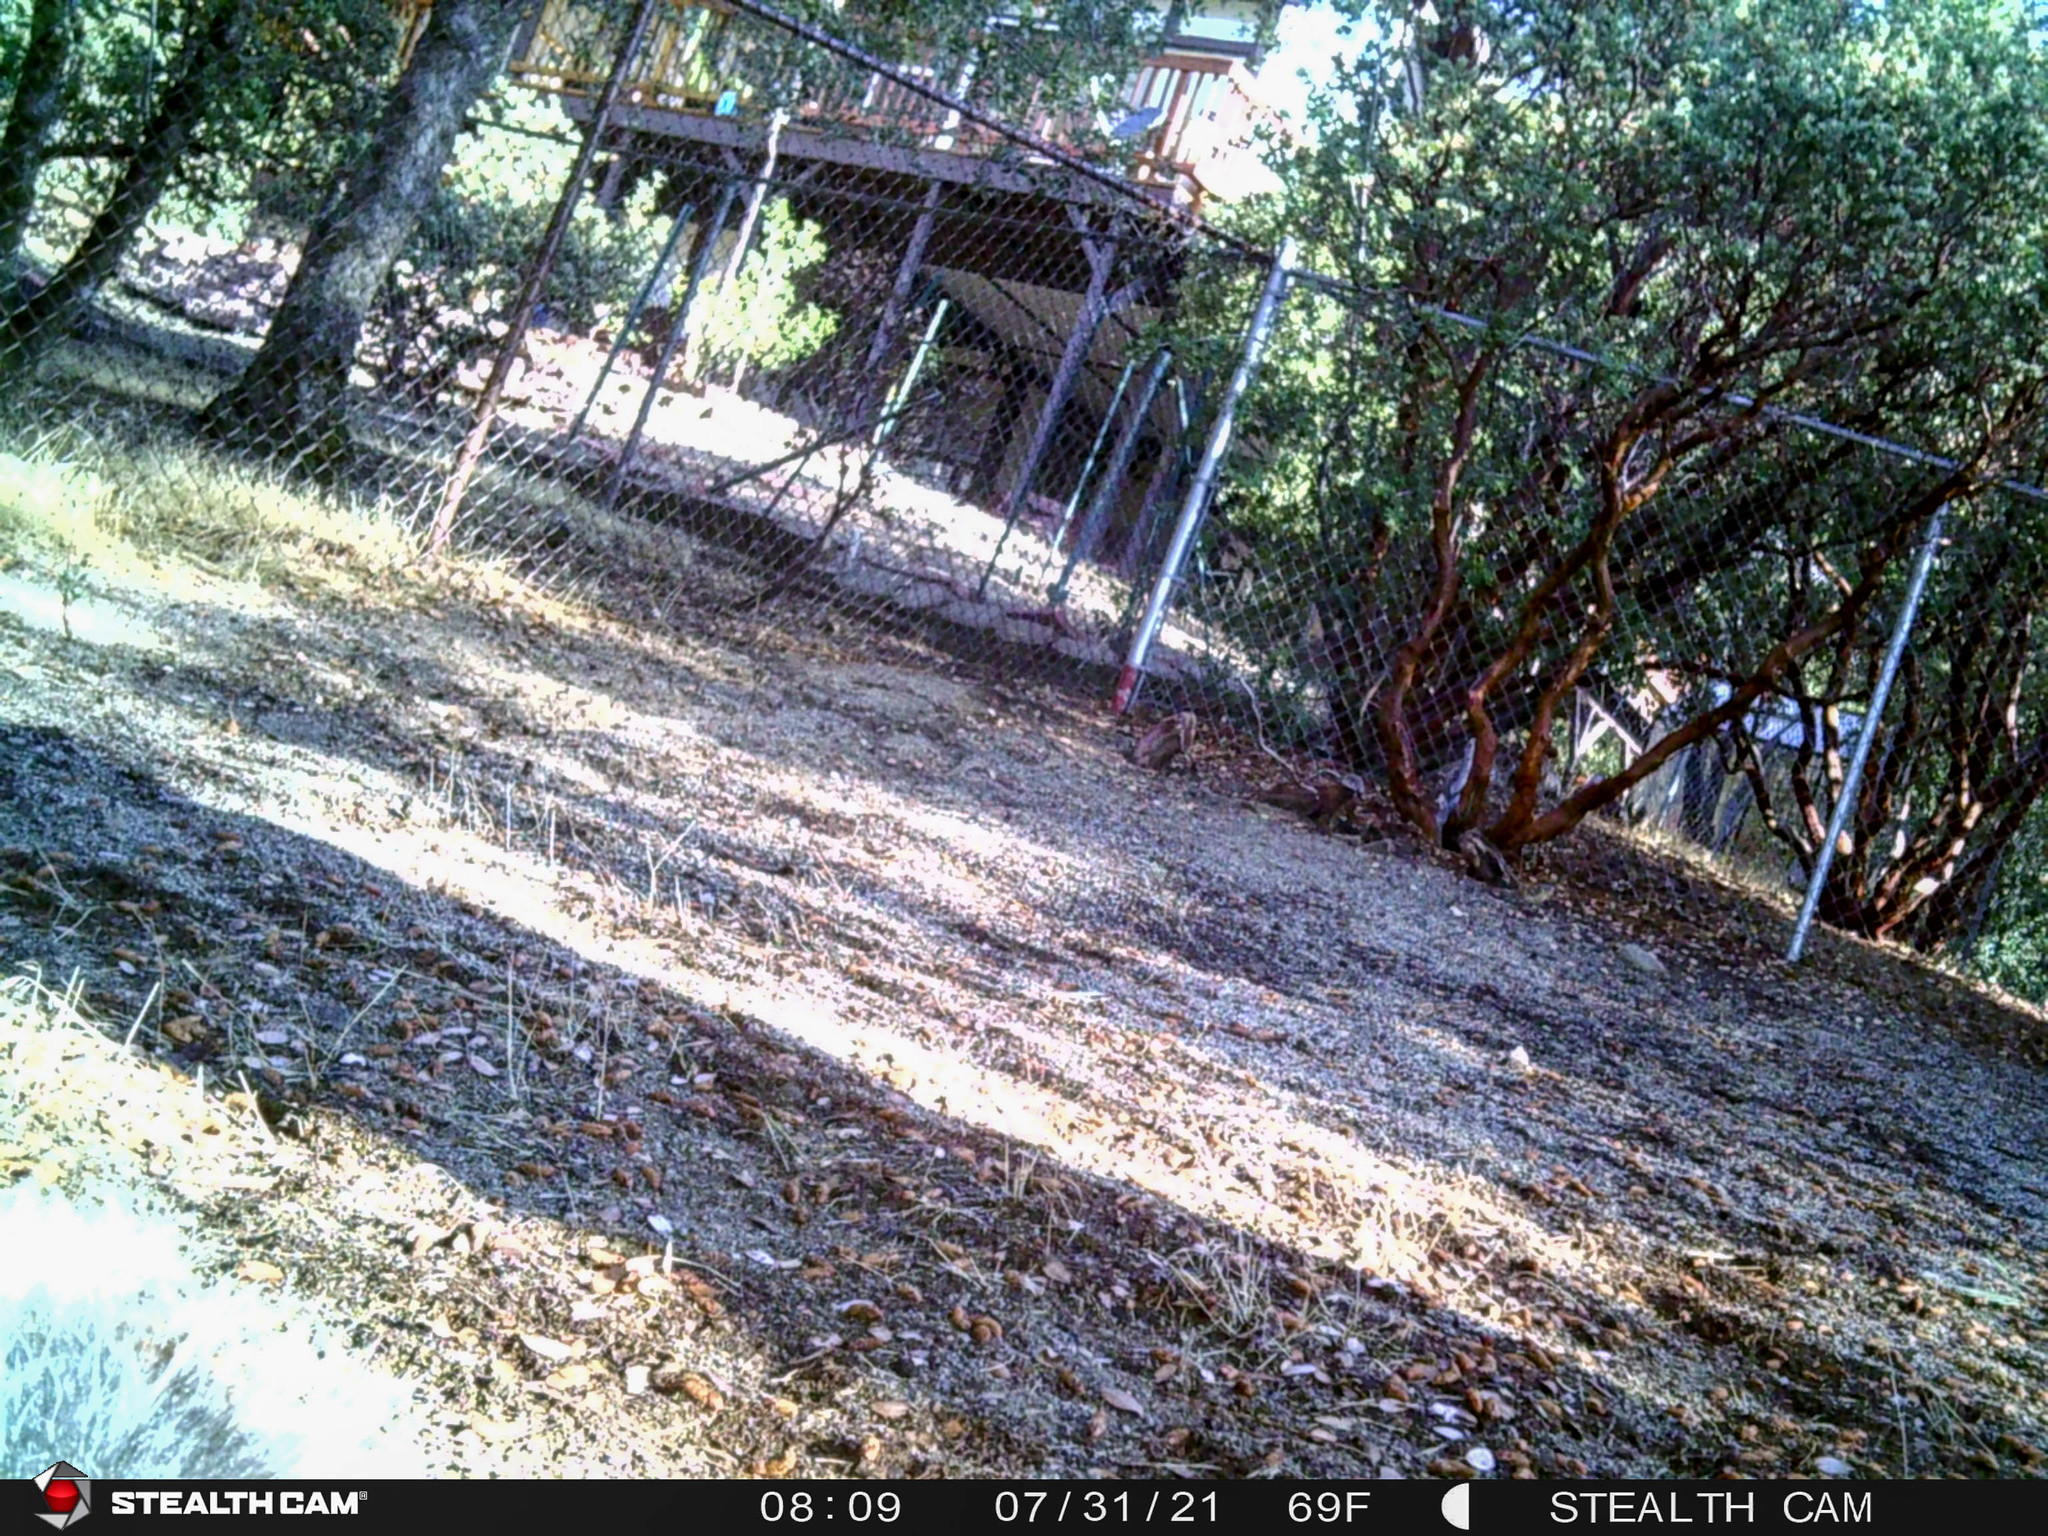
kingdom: Animalia
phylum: Chordata
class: Mammalia
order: Rodentia
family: Sciuridae
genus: Sciurus
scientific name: Sciurus griseus
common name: Western gray squirrel
